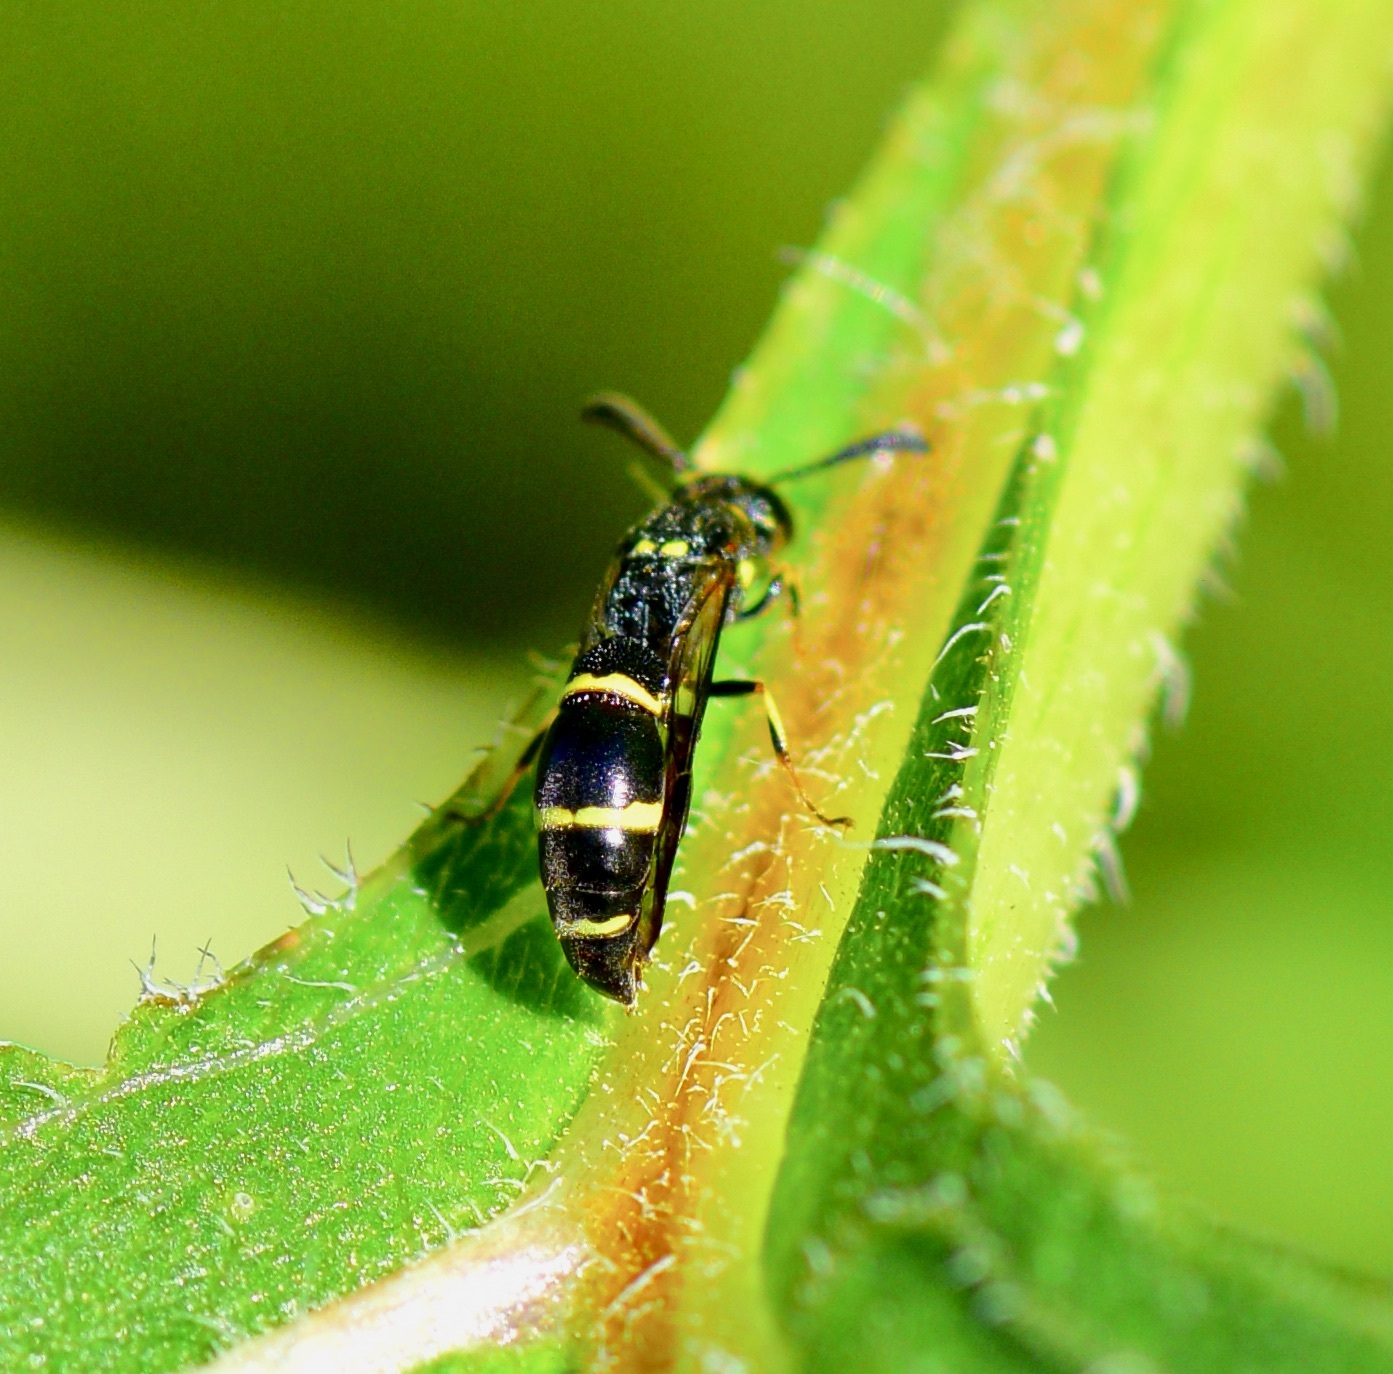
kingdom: Animalia
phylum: Arthropoda
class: Insecta
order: Hymenoptera
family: Eumenidae
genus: Symmorphus
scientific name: Symmorphus
